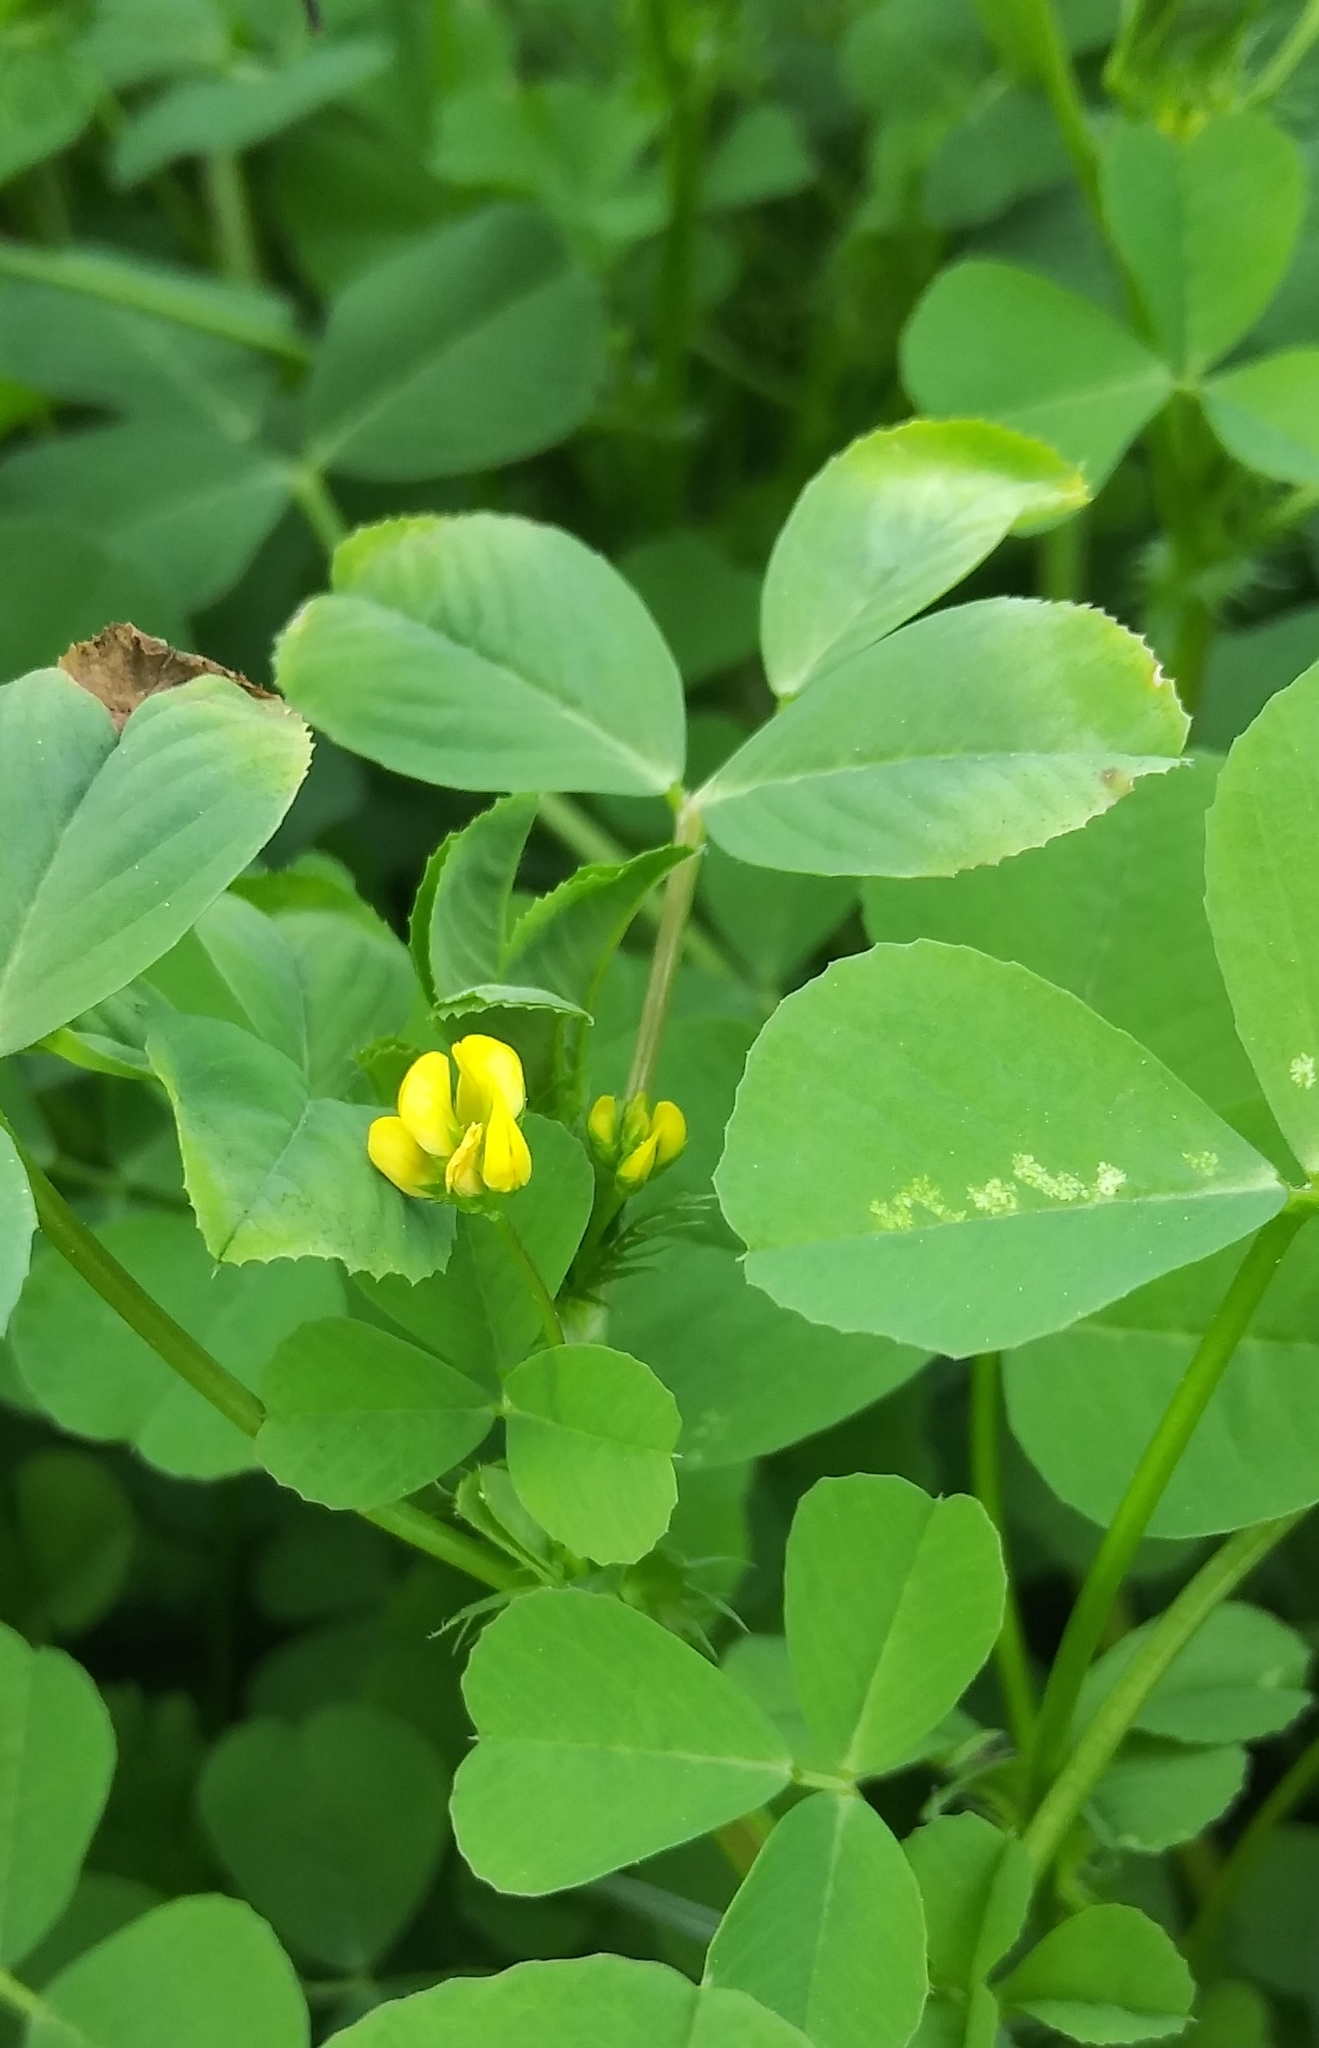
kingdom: Plantae
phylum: Tracheophyta
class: Magnoliopsida
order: Fabales
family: Fabaceae
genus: Medicago
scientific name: Medicago polymorpha
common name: Burclover
